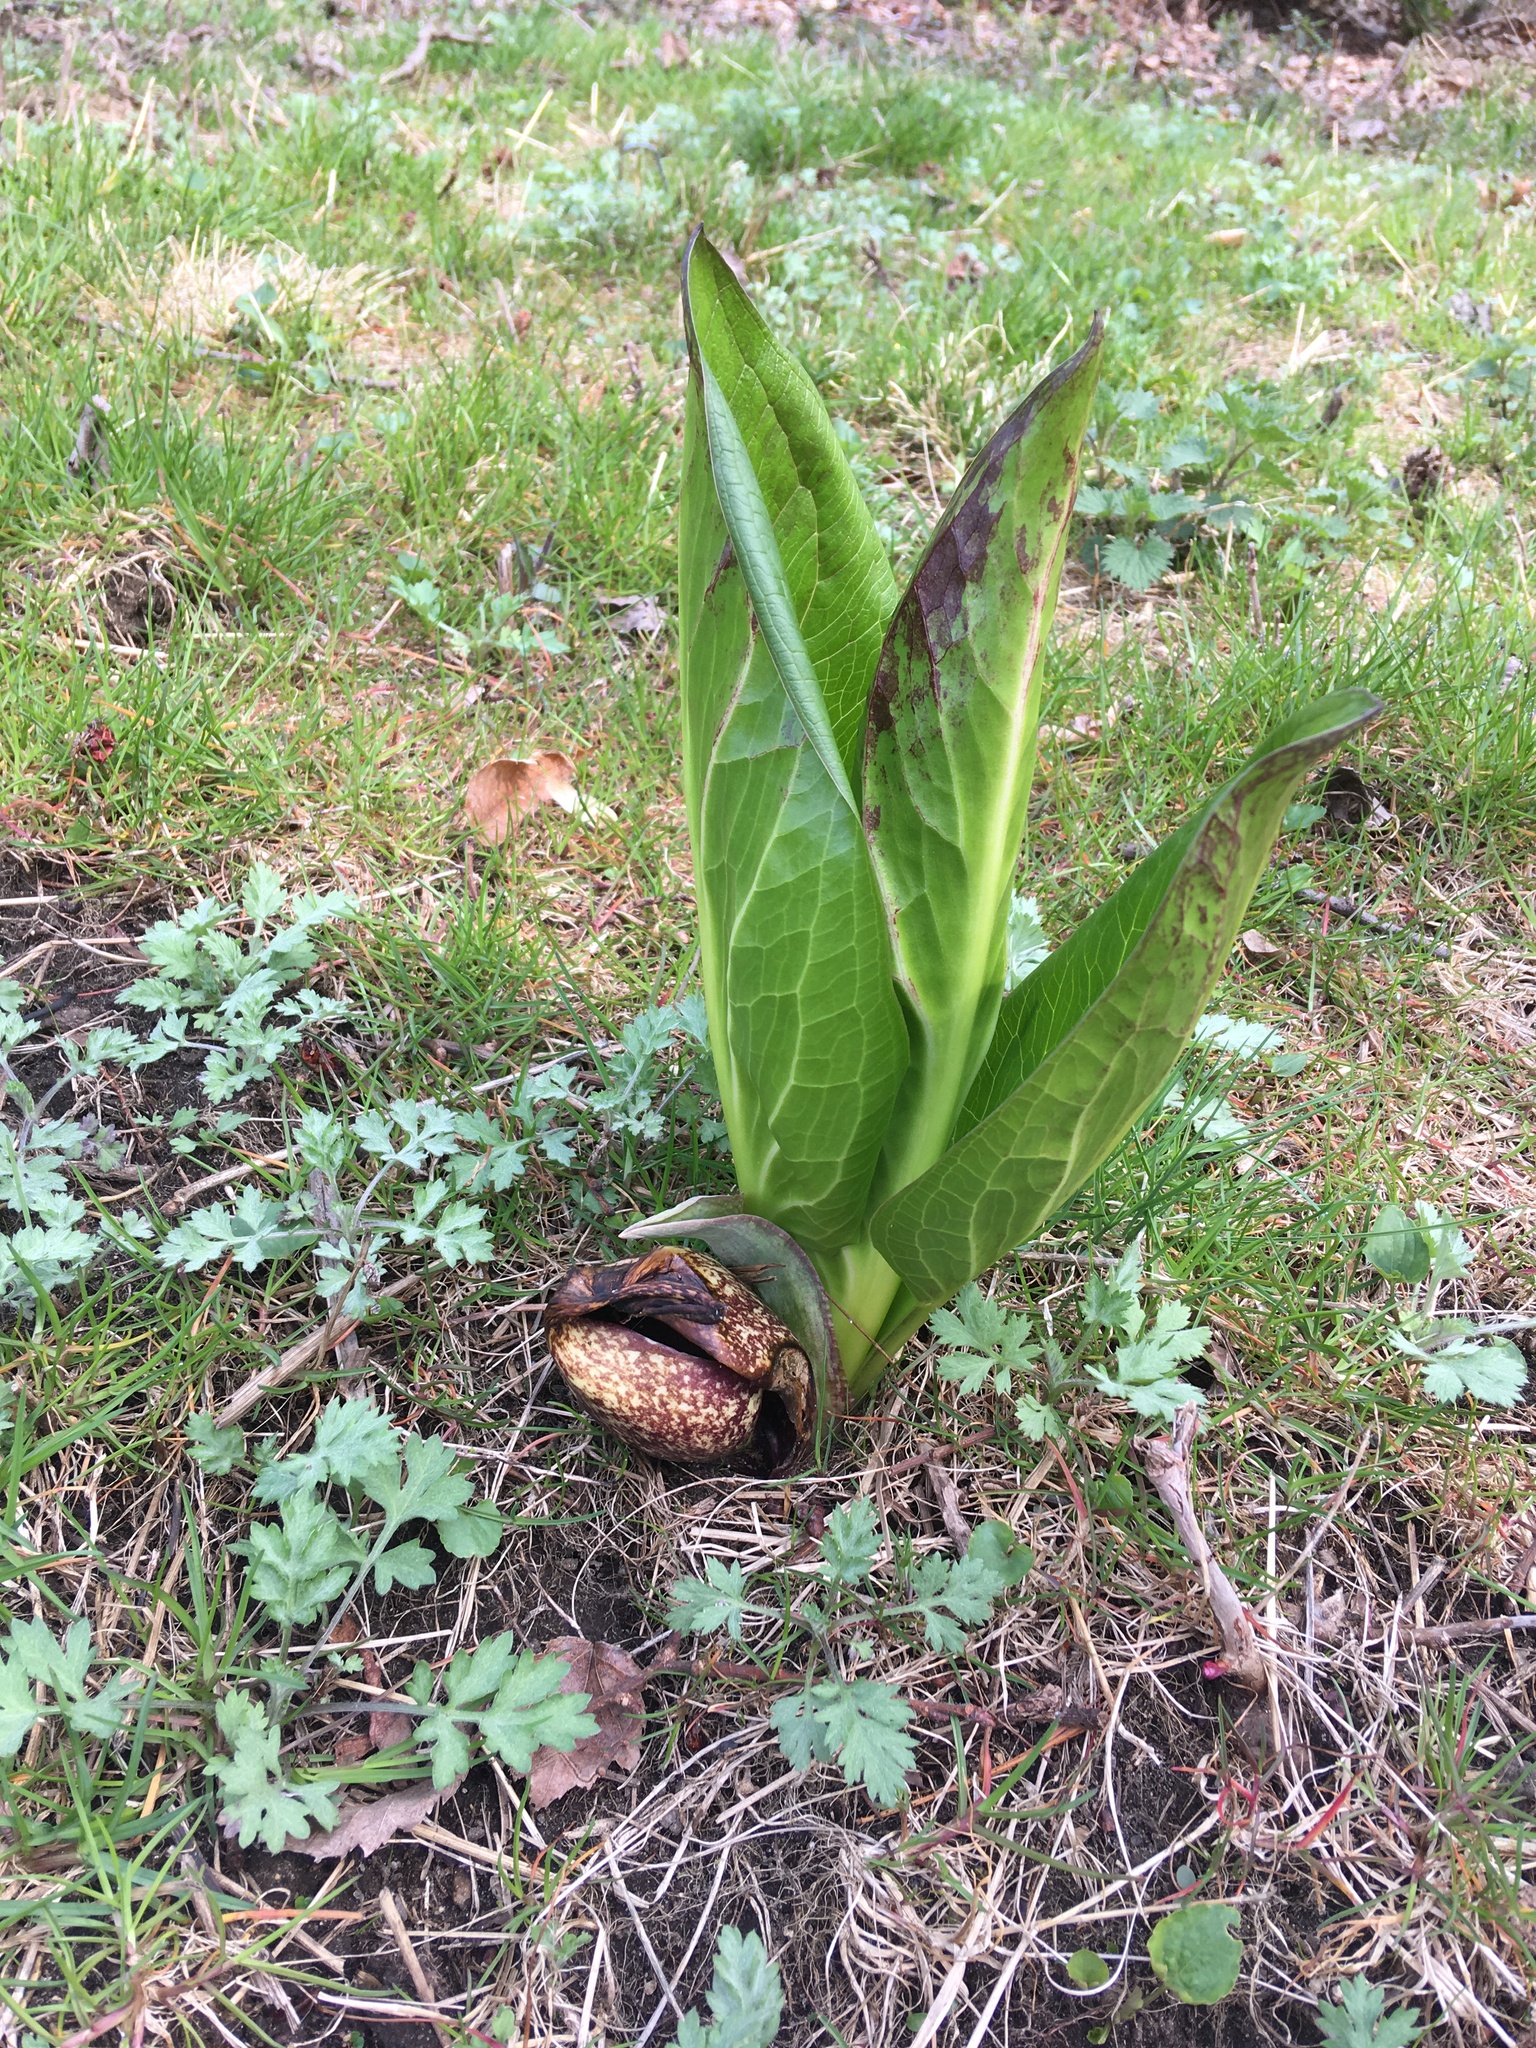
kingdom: Plantae
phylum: Tracheophyta
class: Liliopsida
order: Alismatales
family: Araceae
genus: Symplocarpus
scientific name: Symplocarpus foetidus
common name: Eastern skunk cabbage
